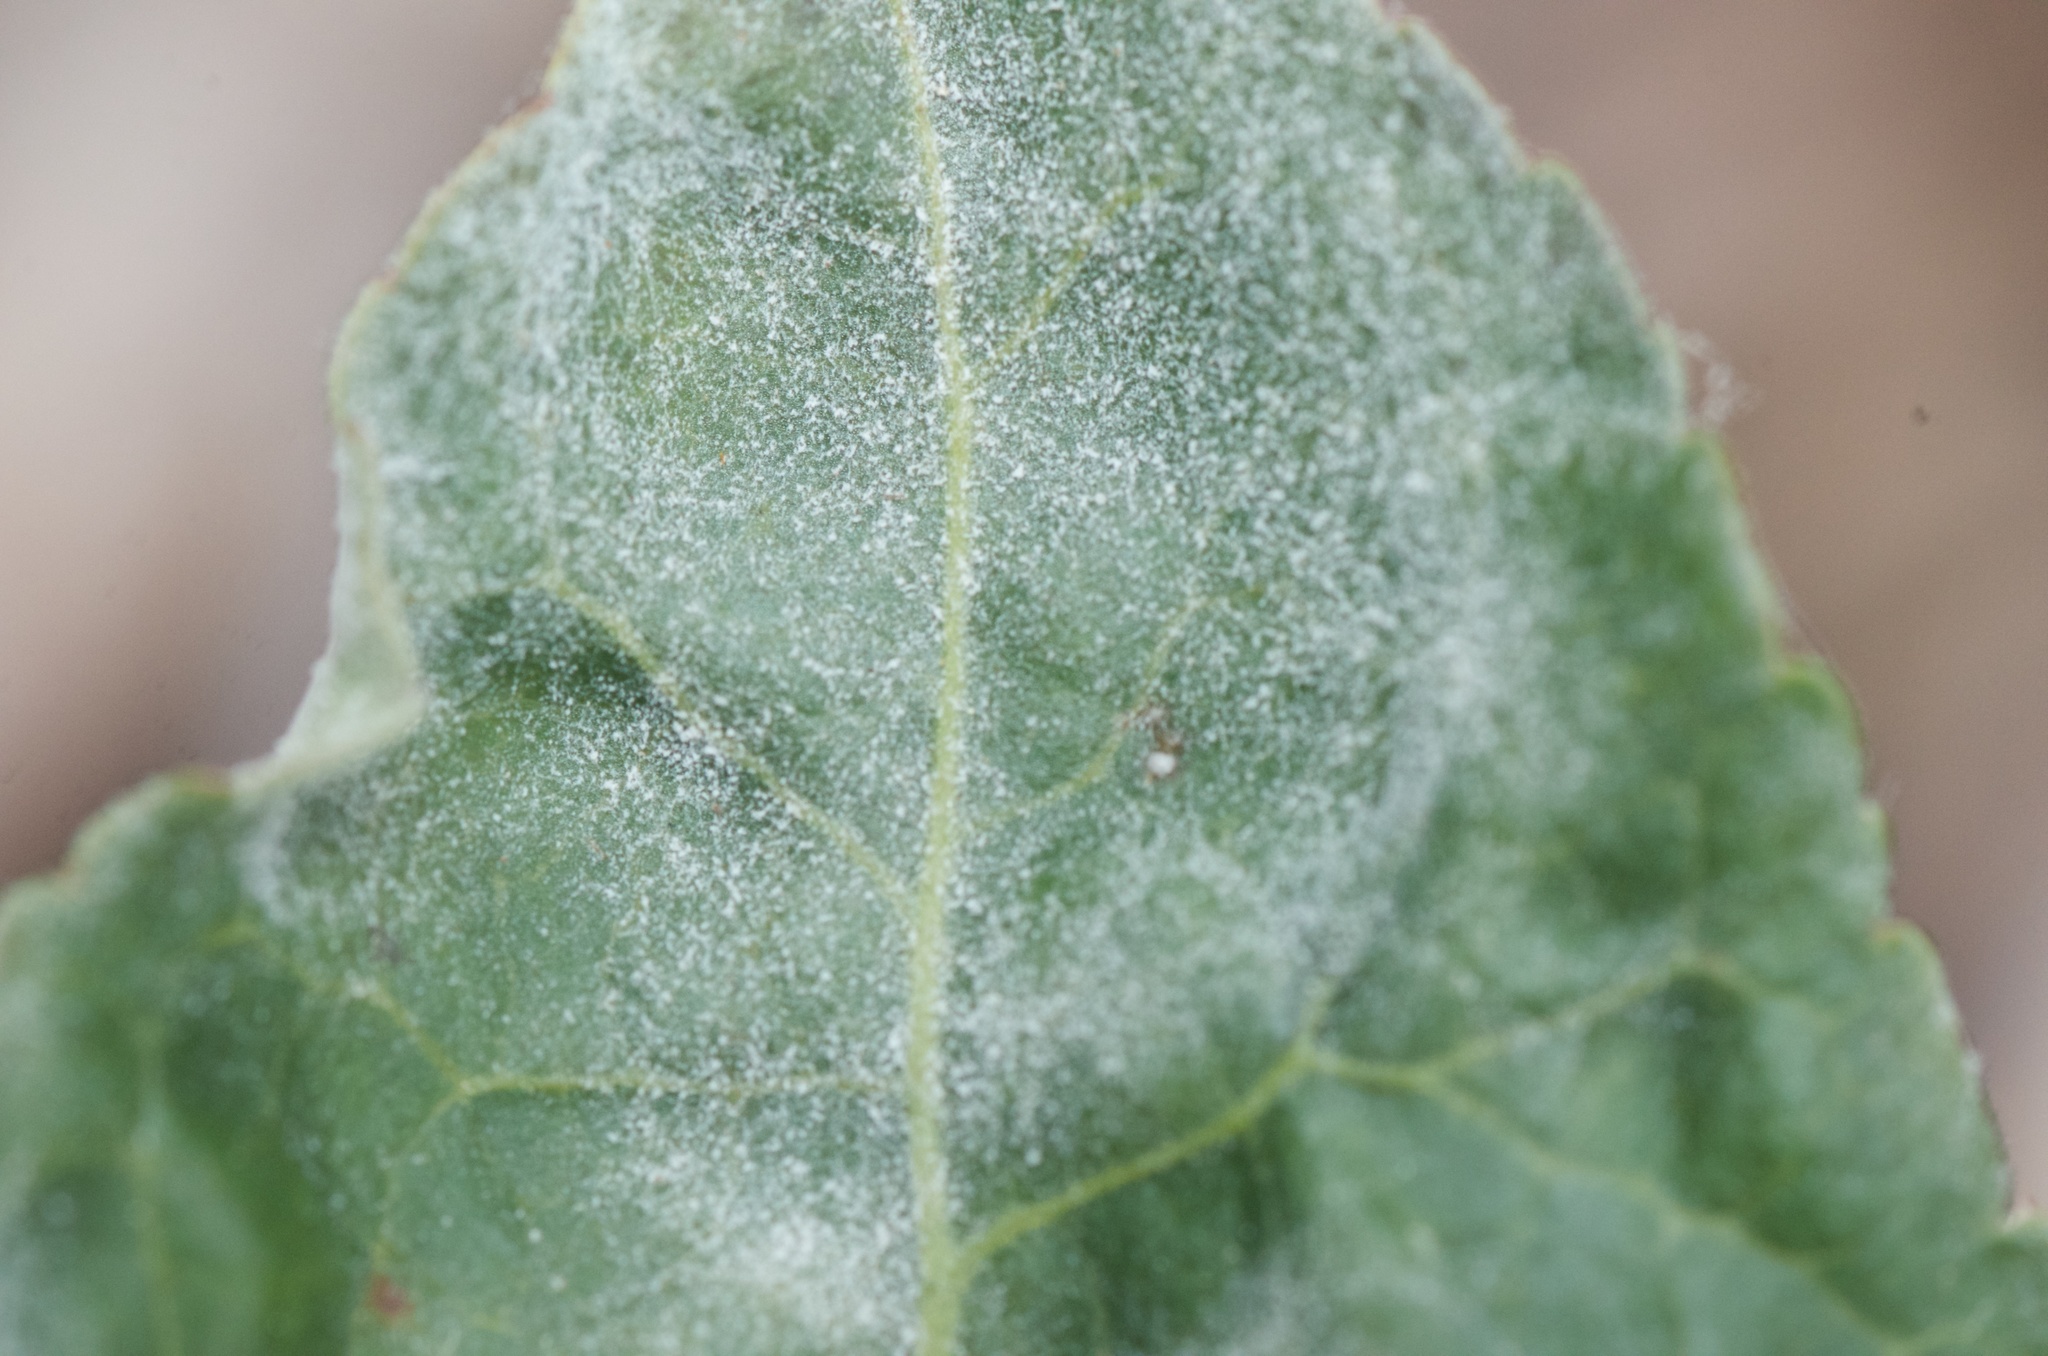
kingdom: Fungi
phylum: Ascomycota
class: Leotiomycetes
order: Helotiales
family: Erysiphaceae
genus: Erysiphe
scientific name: Erysiphe euonymi
